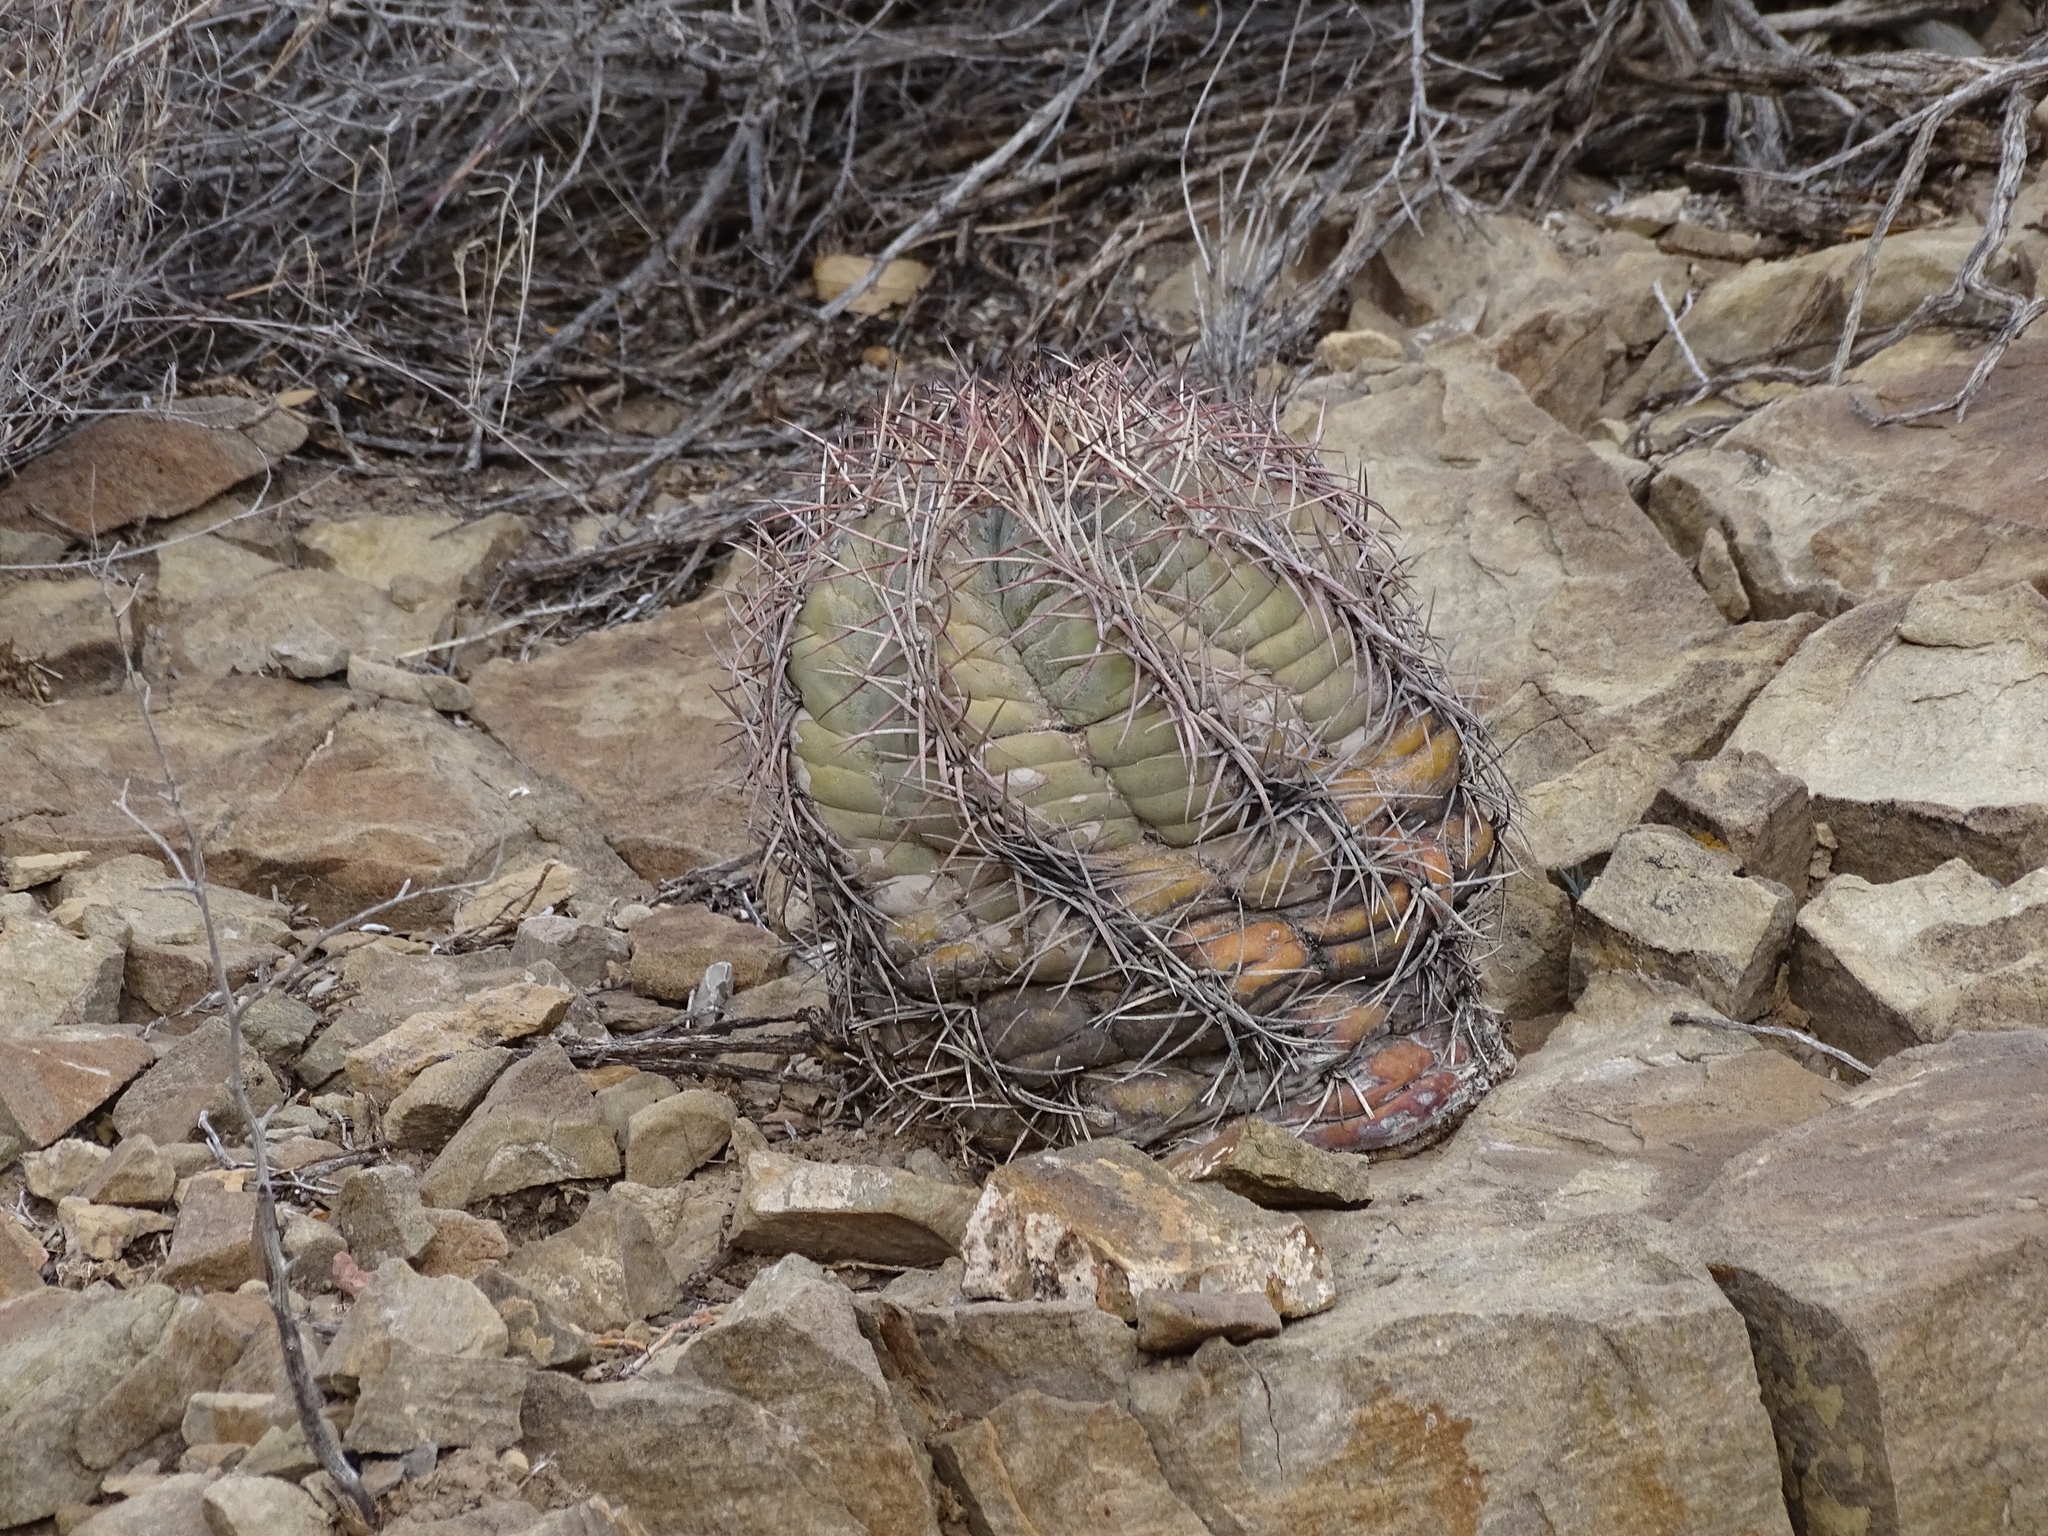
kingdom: Plantae
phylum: Tracheophyta
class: Magnoliopsida
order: Caryophyllales
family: Cactaceae
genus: Echinocactus
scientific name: Echinocactus horizonthalonius
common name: Devilshead
